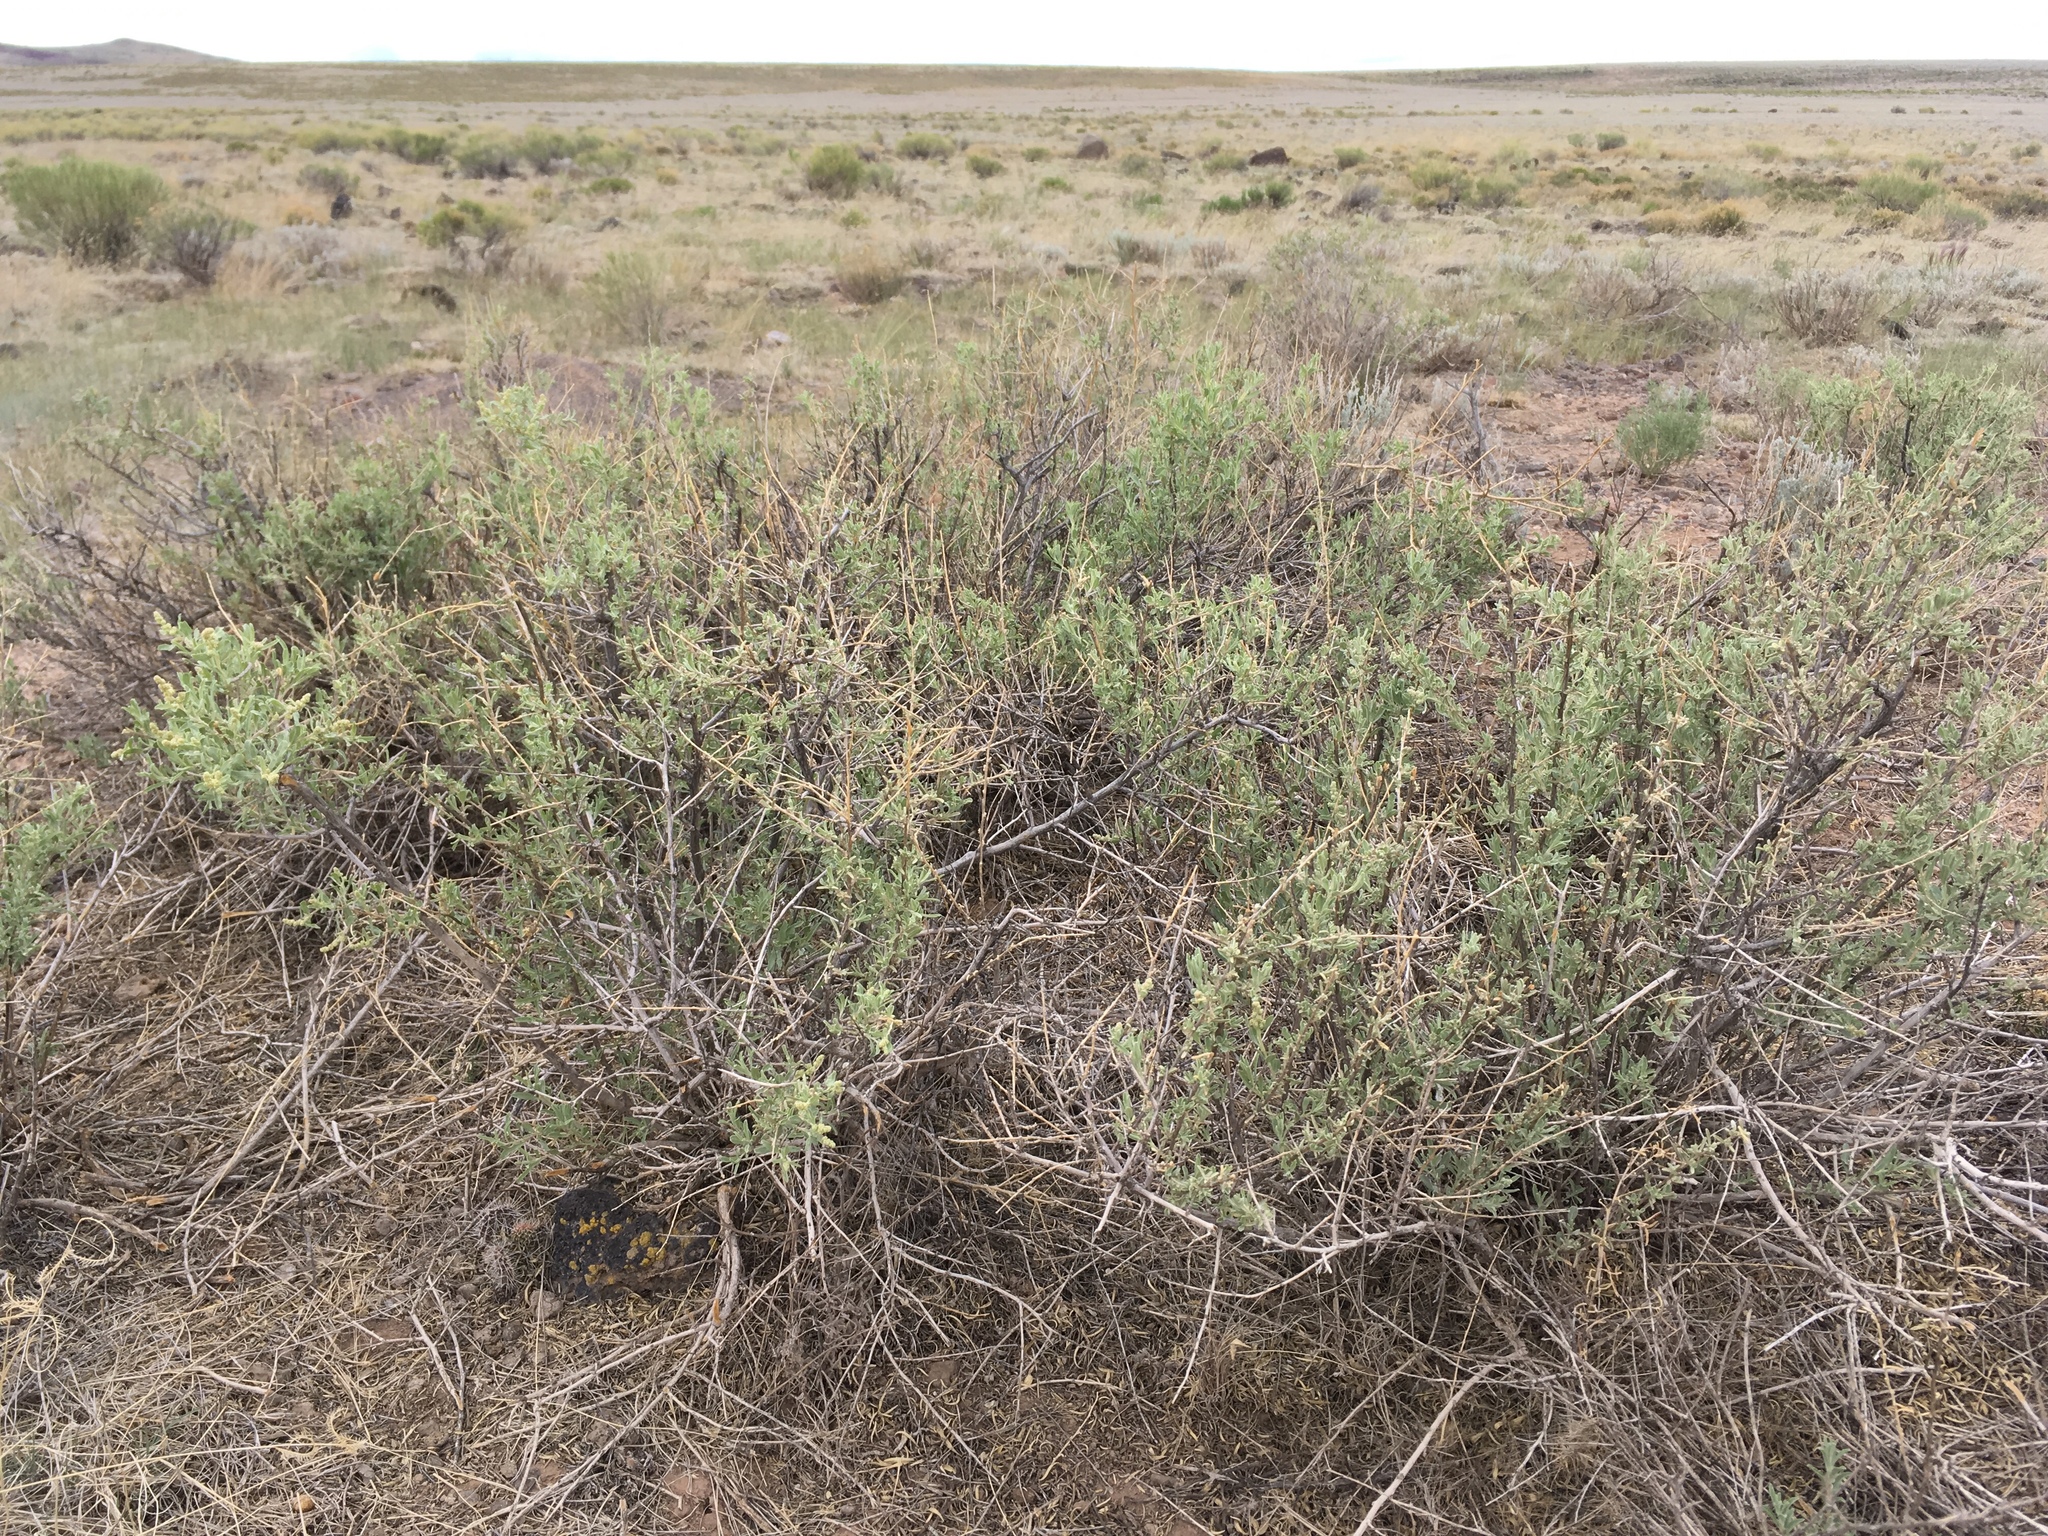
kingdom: Plantae
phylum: Tracheophyta
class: Magnoliopsida
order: Caryophyllales
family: Amaranthaceae
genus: Atriplex
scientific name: Atriplex canescens
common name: Four-wing saltbush
